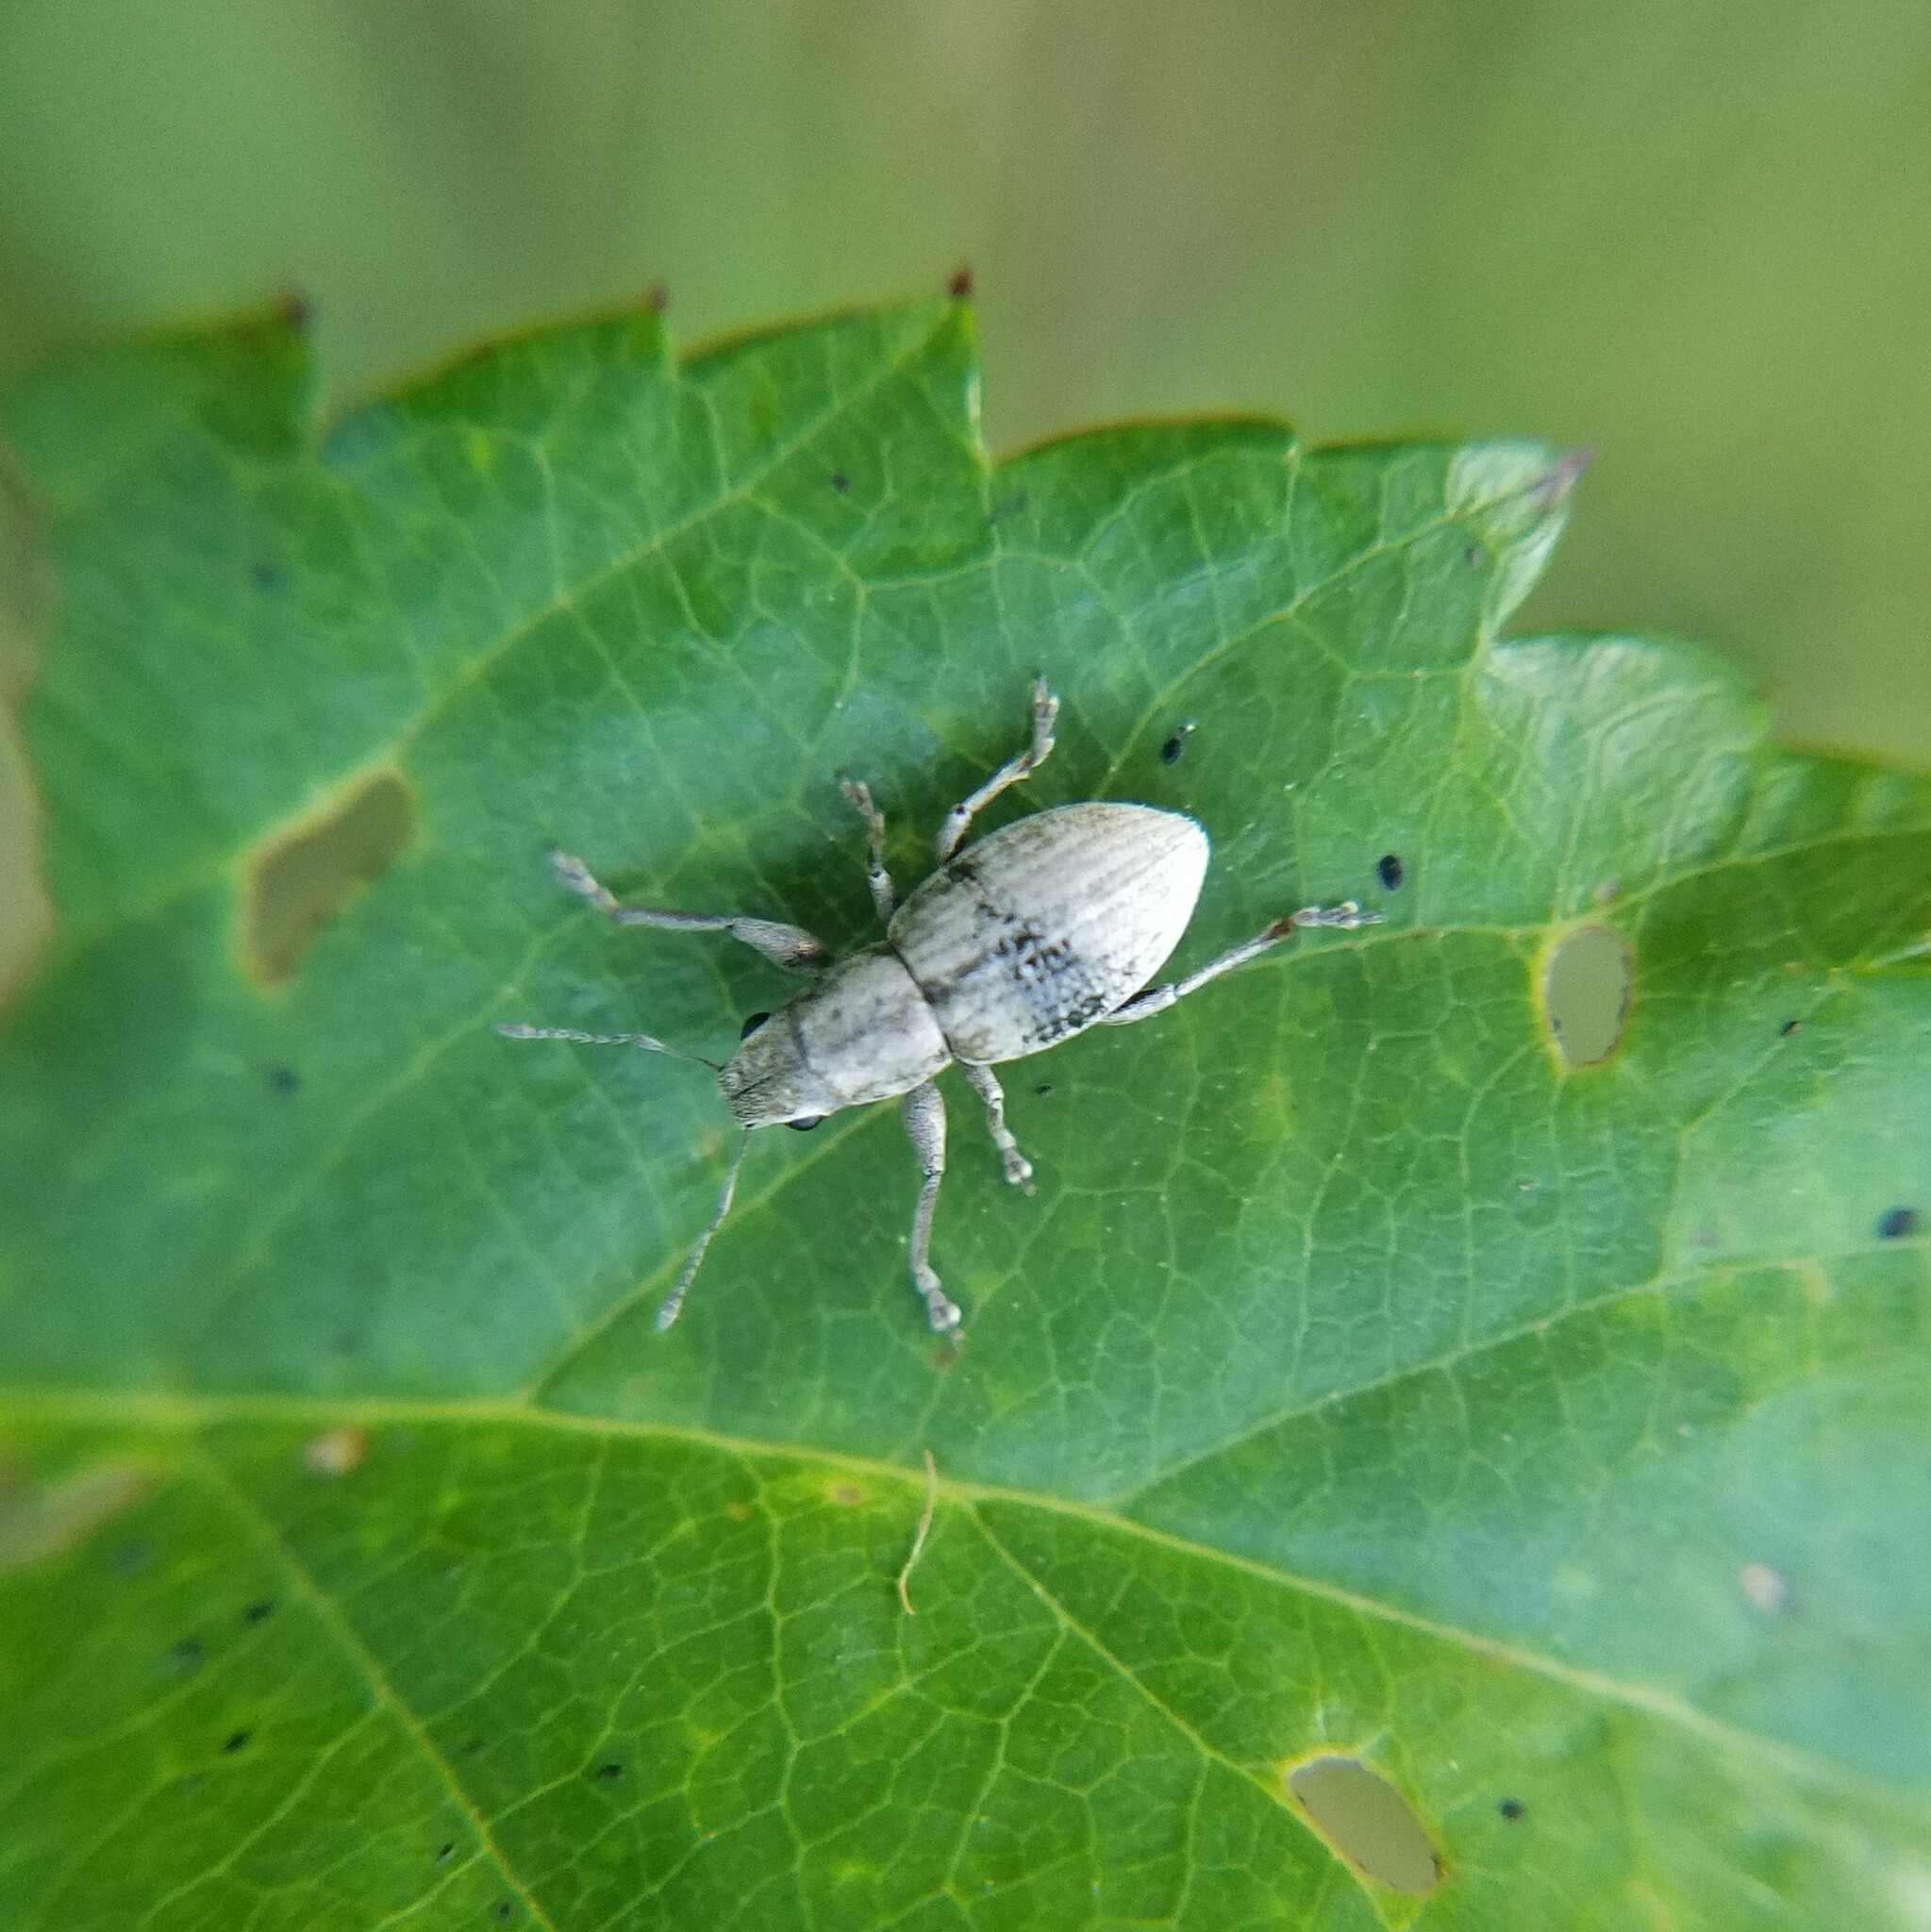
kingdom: Animalia
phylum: Arthropoda
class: Insecta
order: Coleoptera
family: Curculionidae
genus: Atrichonotus
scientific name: Atrichonotus taeniatulus
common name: Small lucerne weevil
